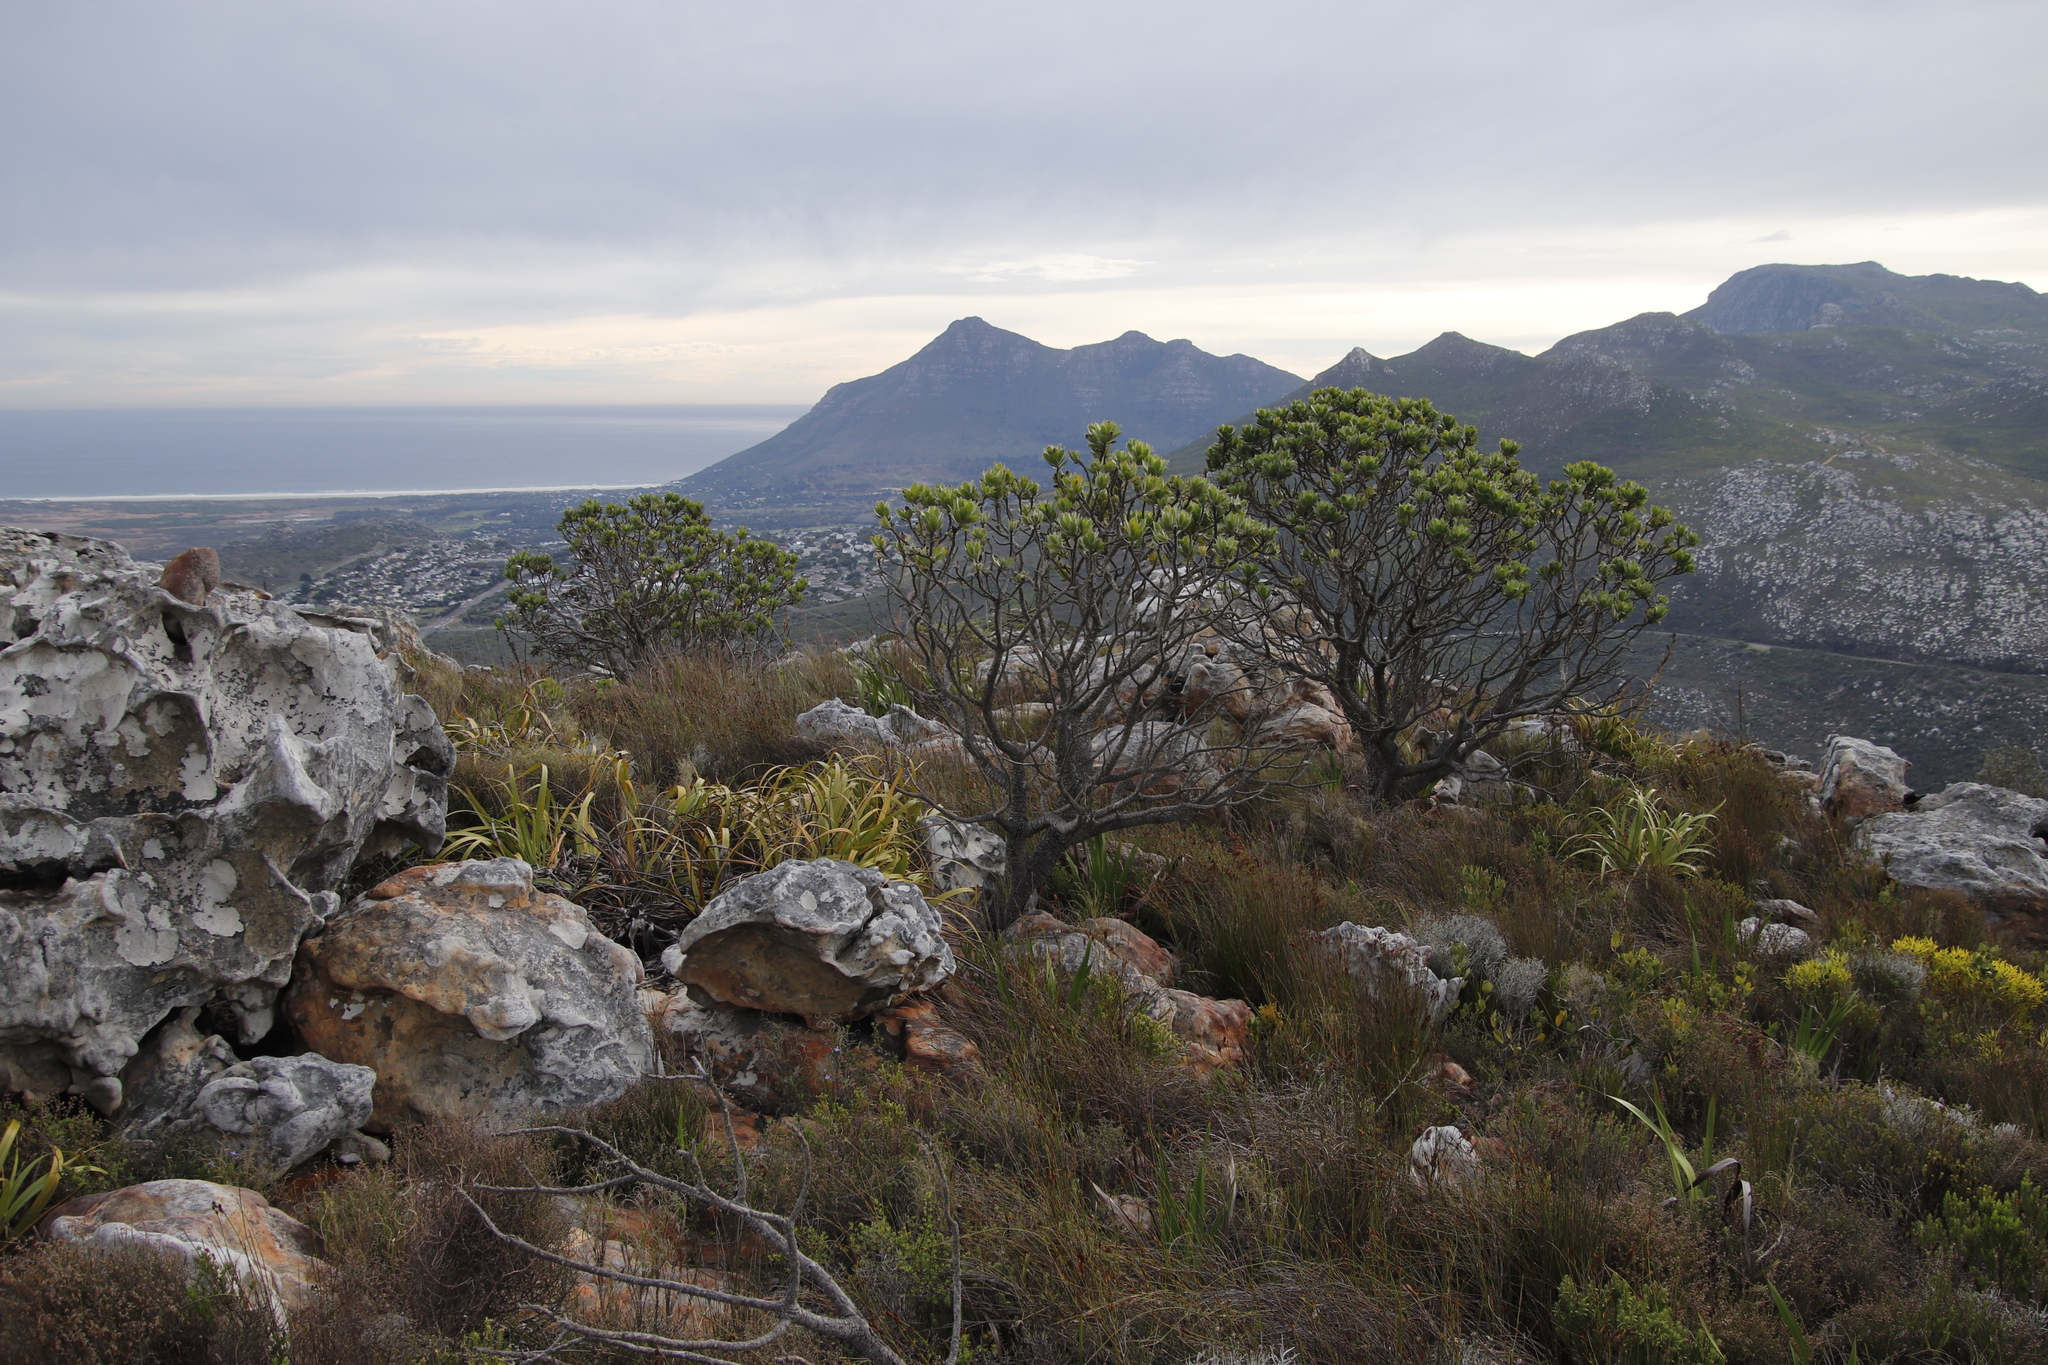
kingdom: Plantae
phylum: Tracheophyta
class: Magnoliopsida
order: Proteales
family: Proteaceae
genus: Leucospermum
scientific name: Leucospermum conocarpodendron
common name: Tree pincushion
